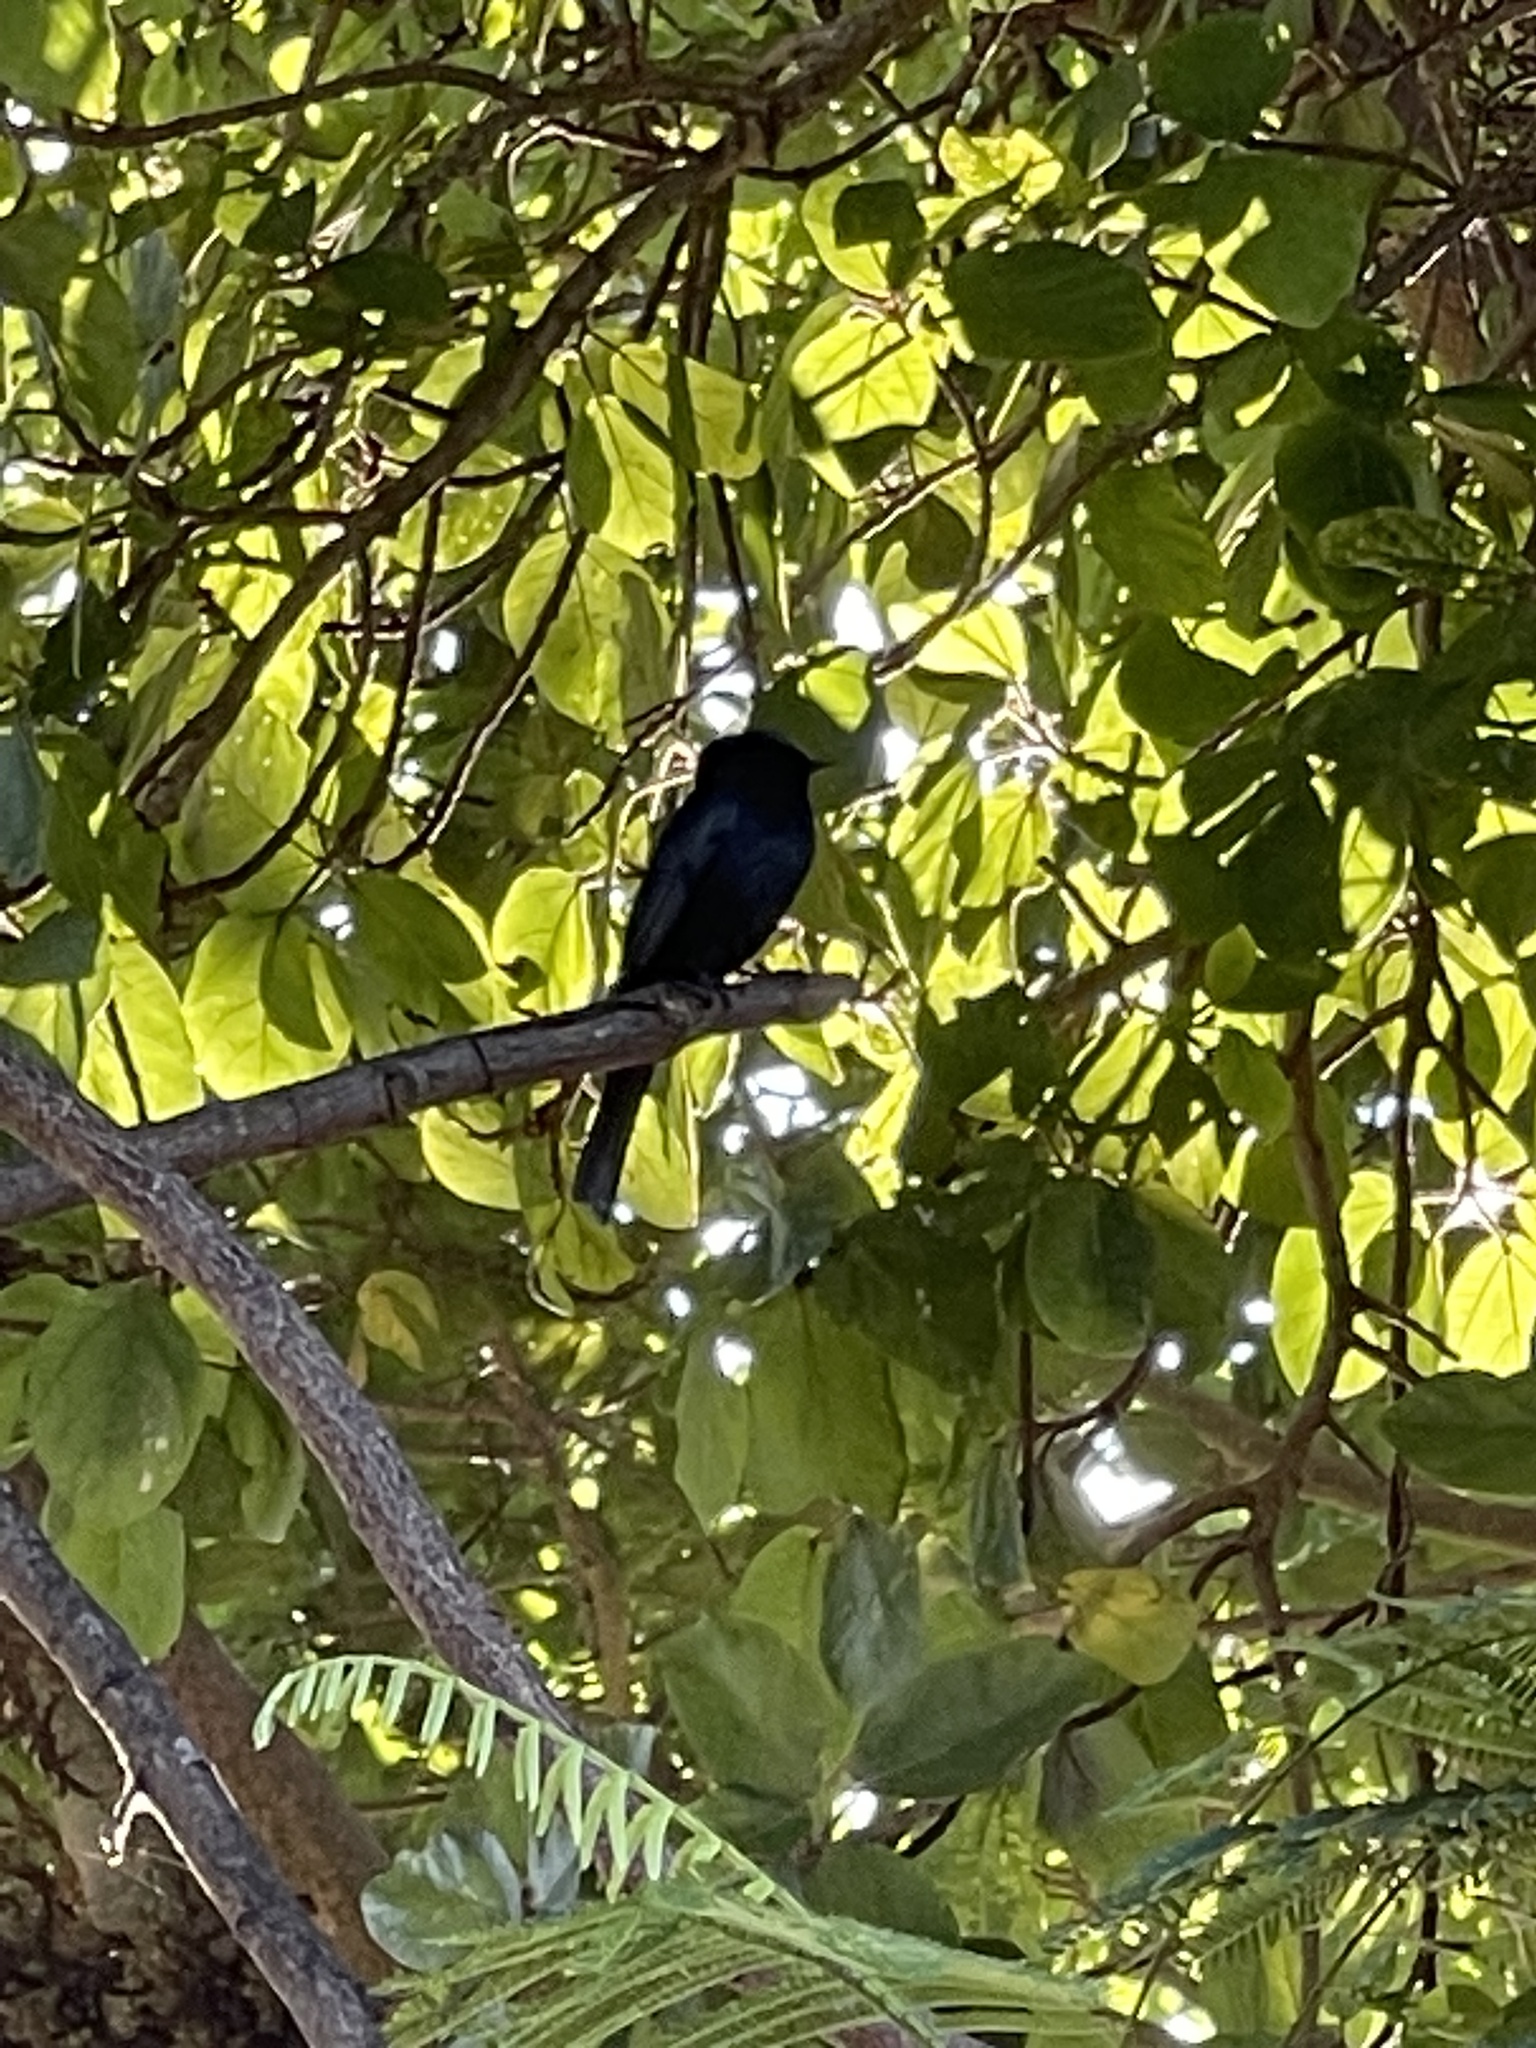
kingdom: Animalia
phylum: Chordata
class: Aves
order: Passeriformes
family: Muscicapidae
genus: Melaenornis
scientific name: Melaenornis pammelaina
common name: Southern black flycatcher
